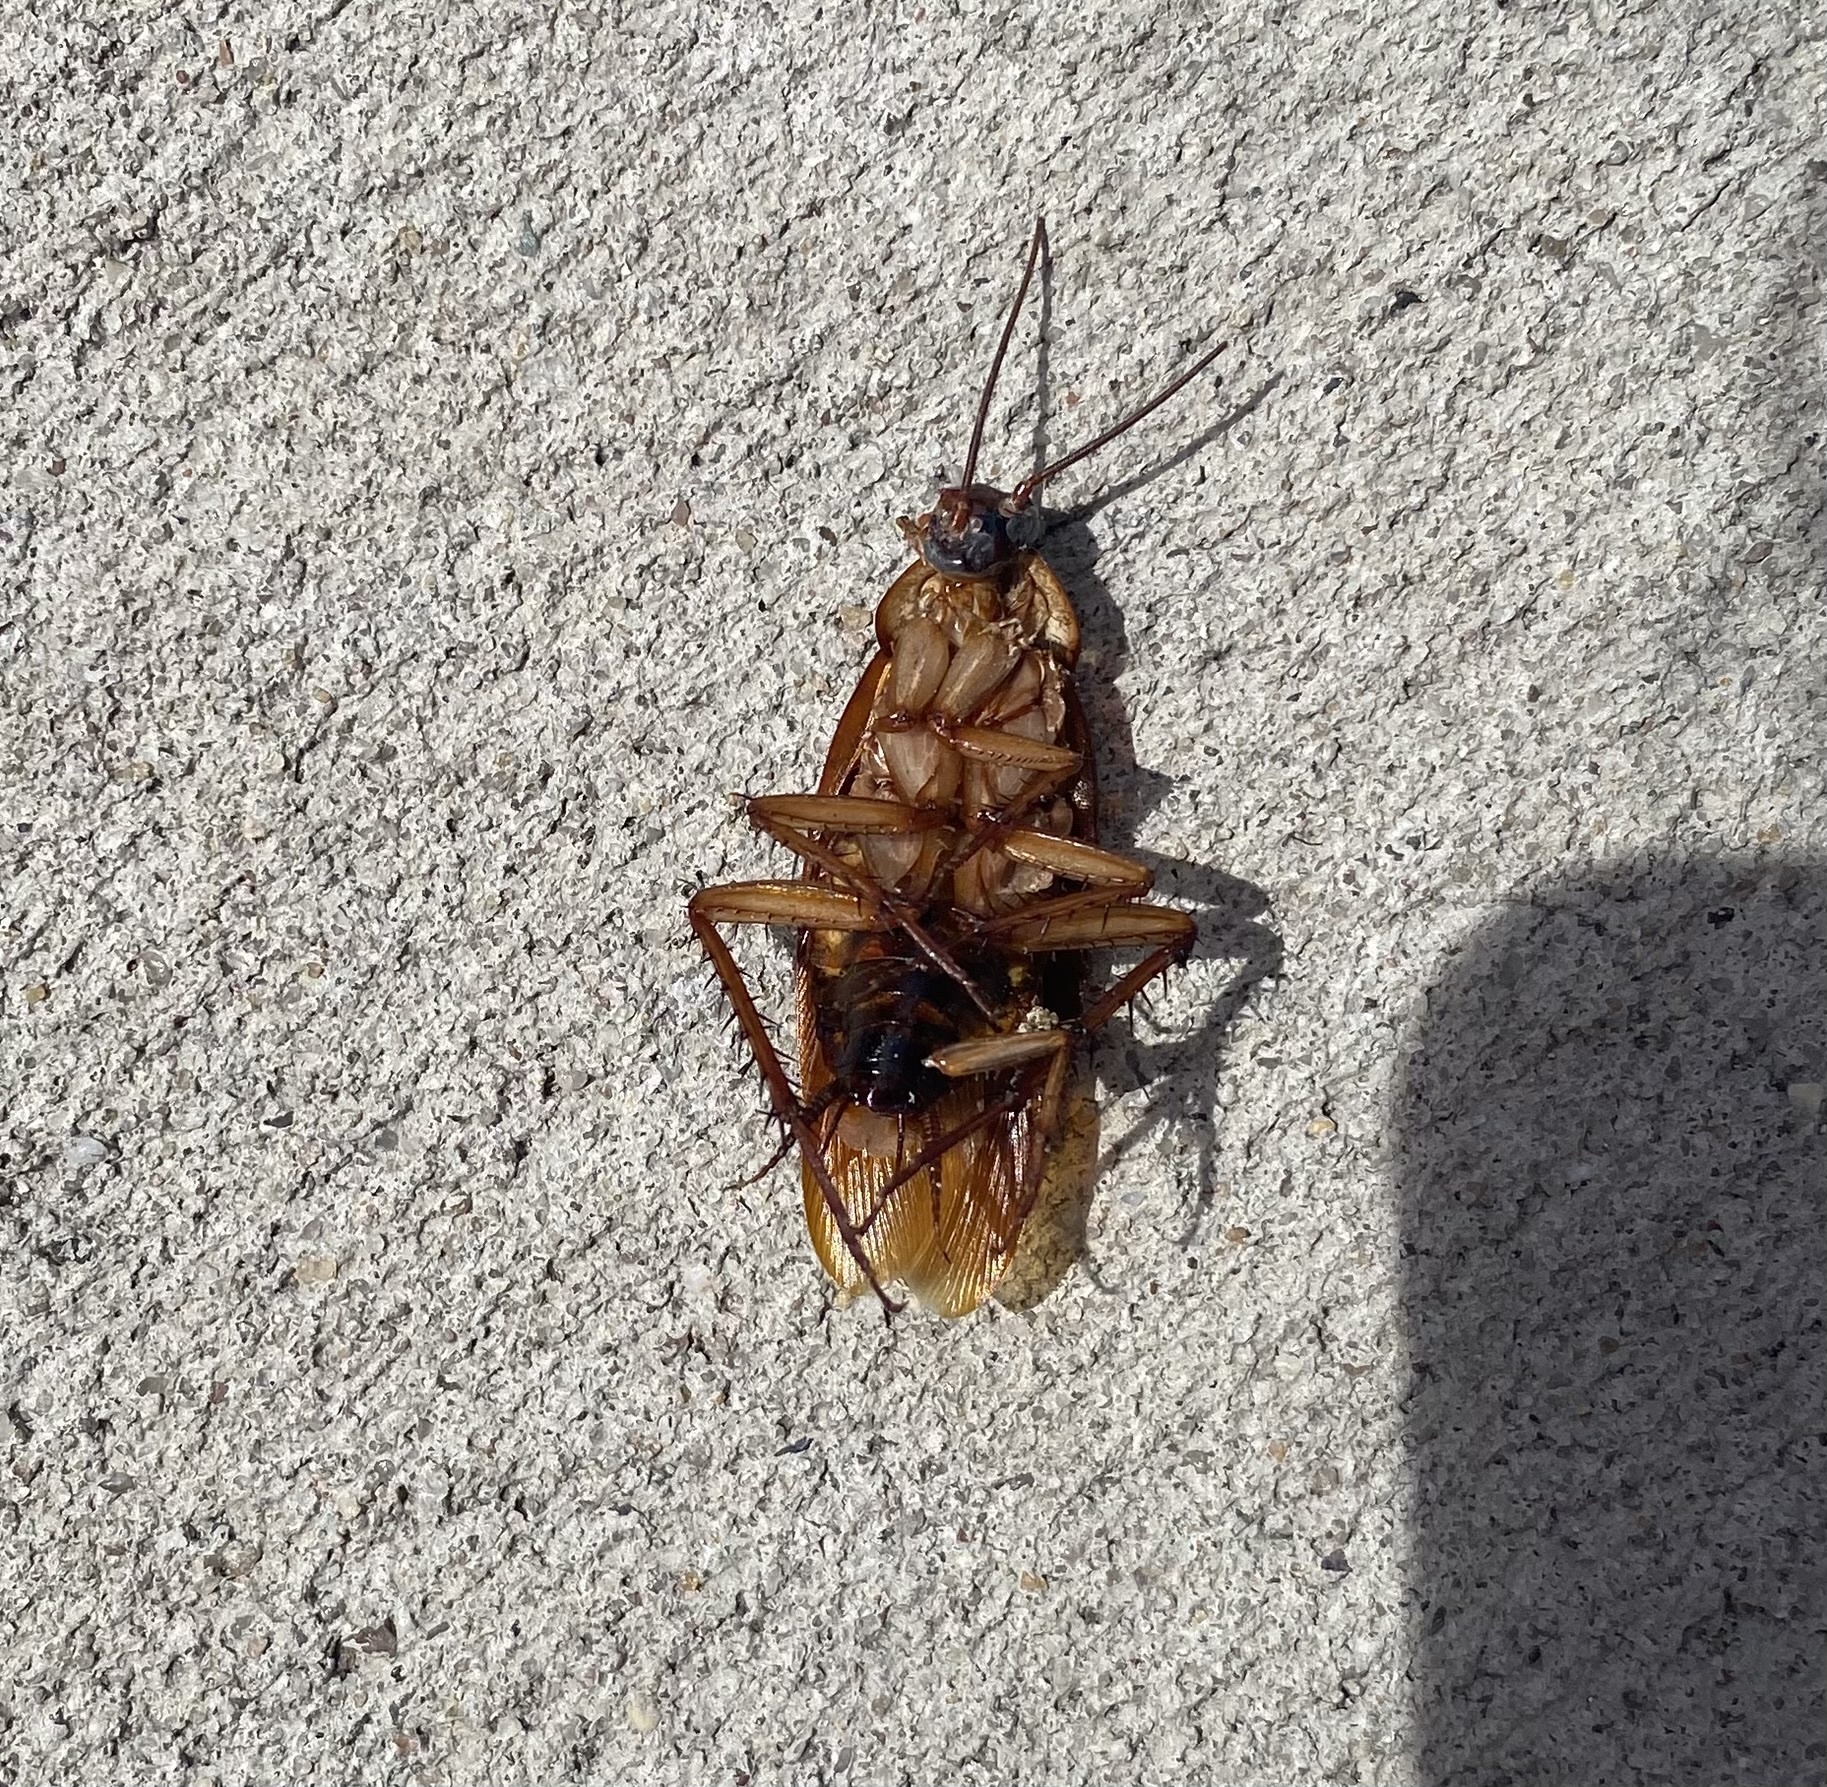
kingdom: Animalia
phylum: Arthropoda
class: Insecta
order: Blattodea
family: Blattidae
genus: Periplaneta
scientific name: Periplaneta americana
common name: American cockroach
